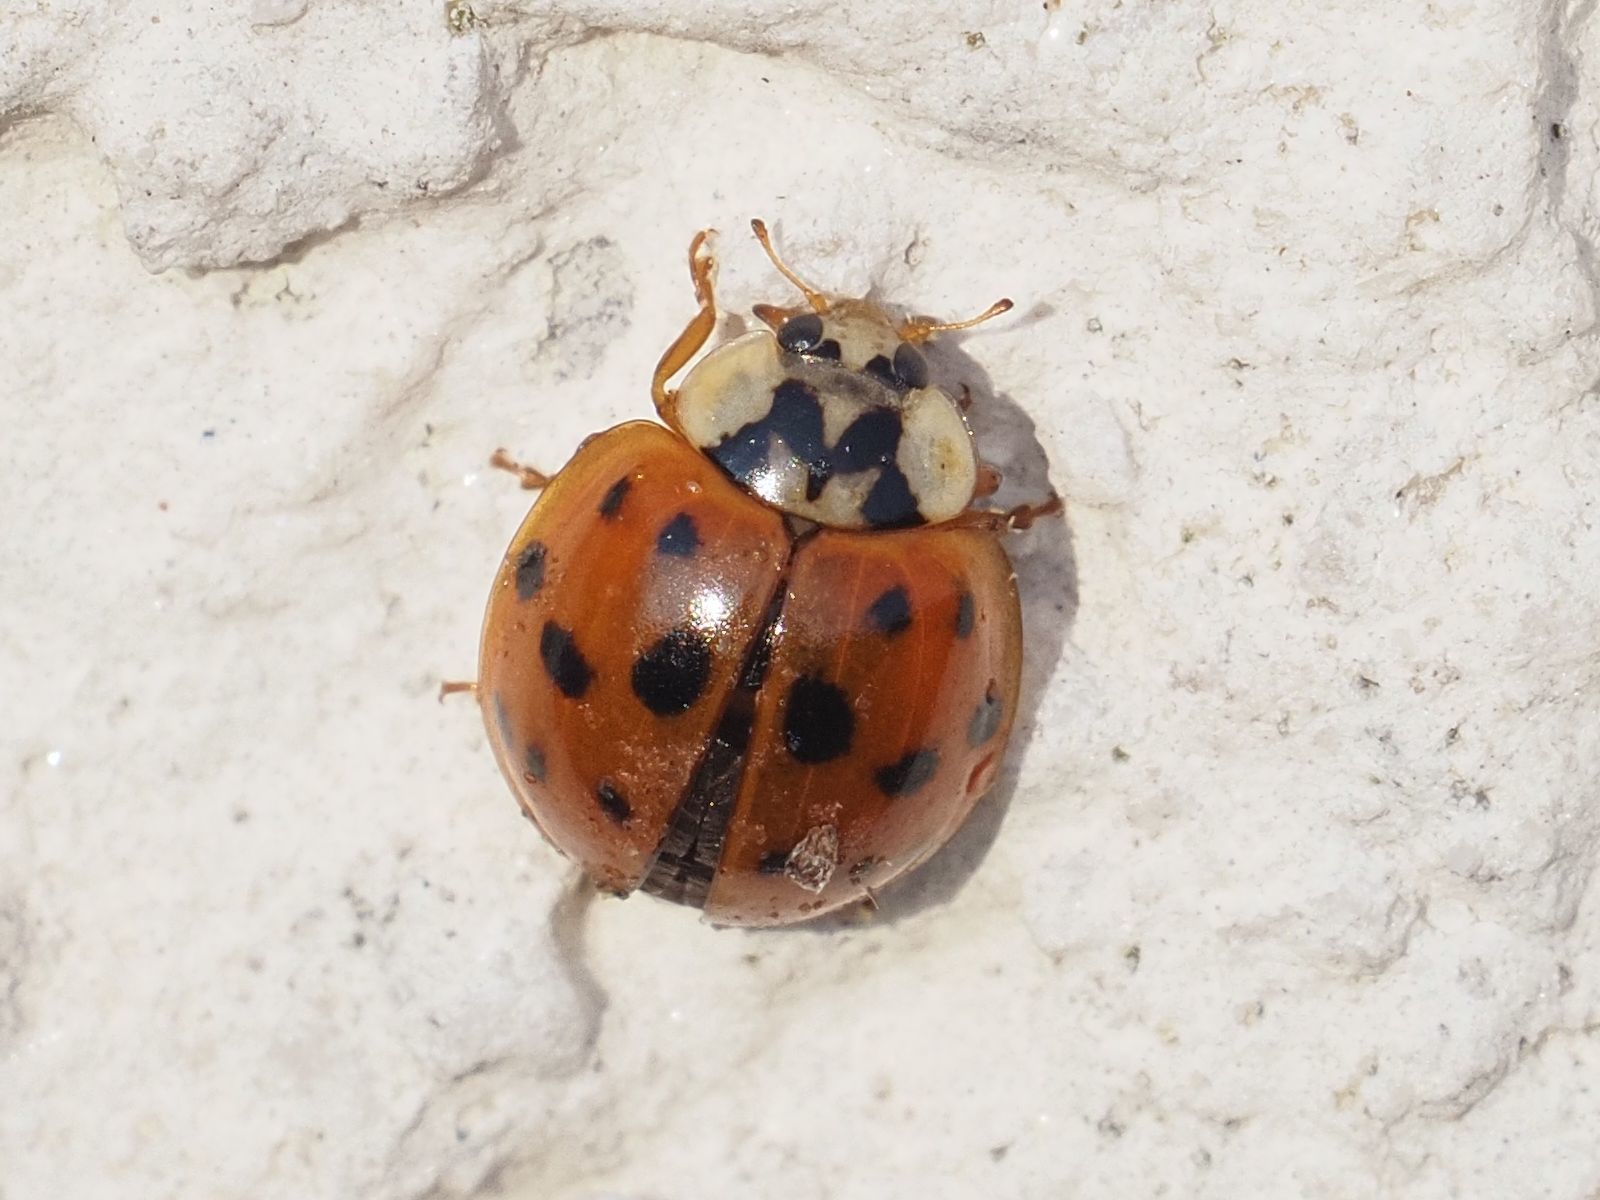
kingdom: Animalia
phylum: Arthropoda
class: Insecta
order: Coleoptera
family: Coccinellidae
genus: Harmonia
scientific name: Harmonia axyridis
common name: Harlequin ladybird
